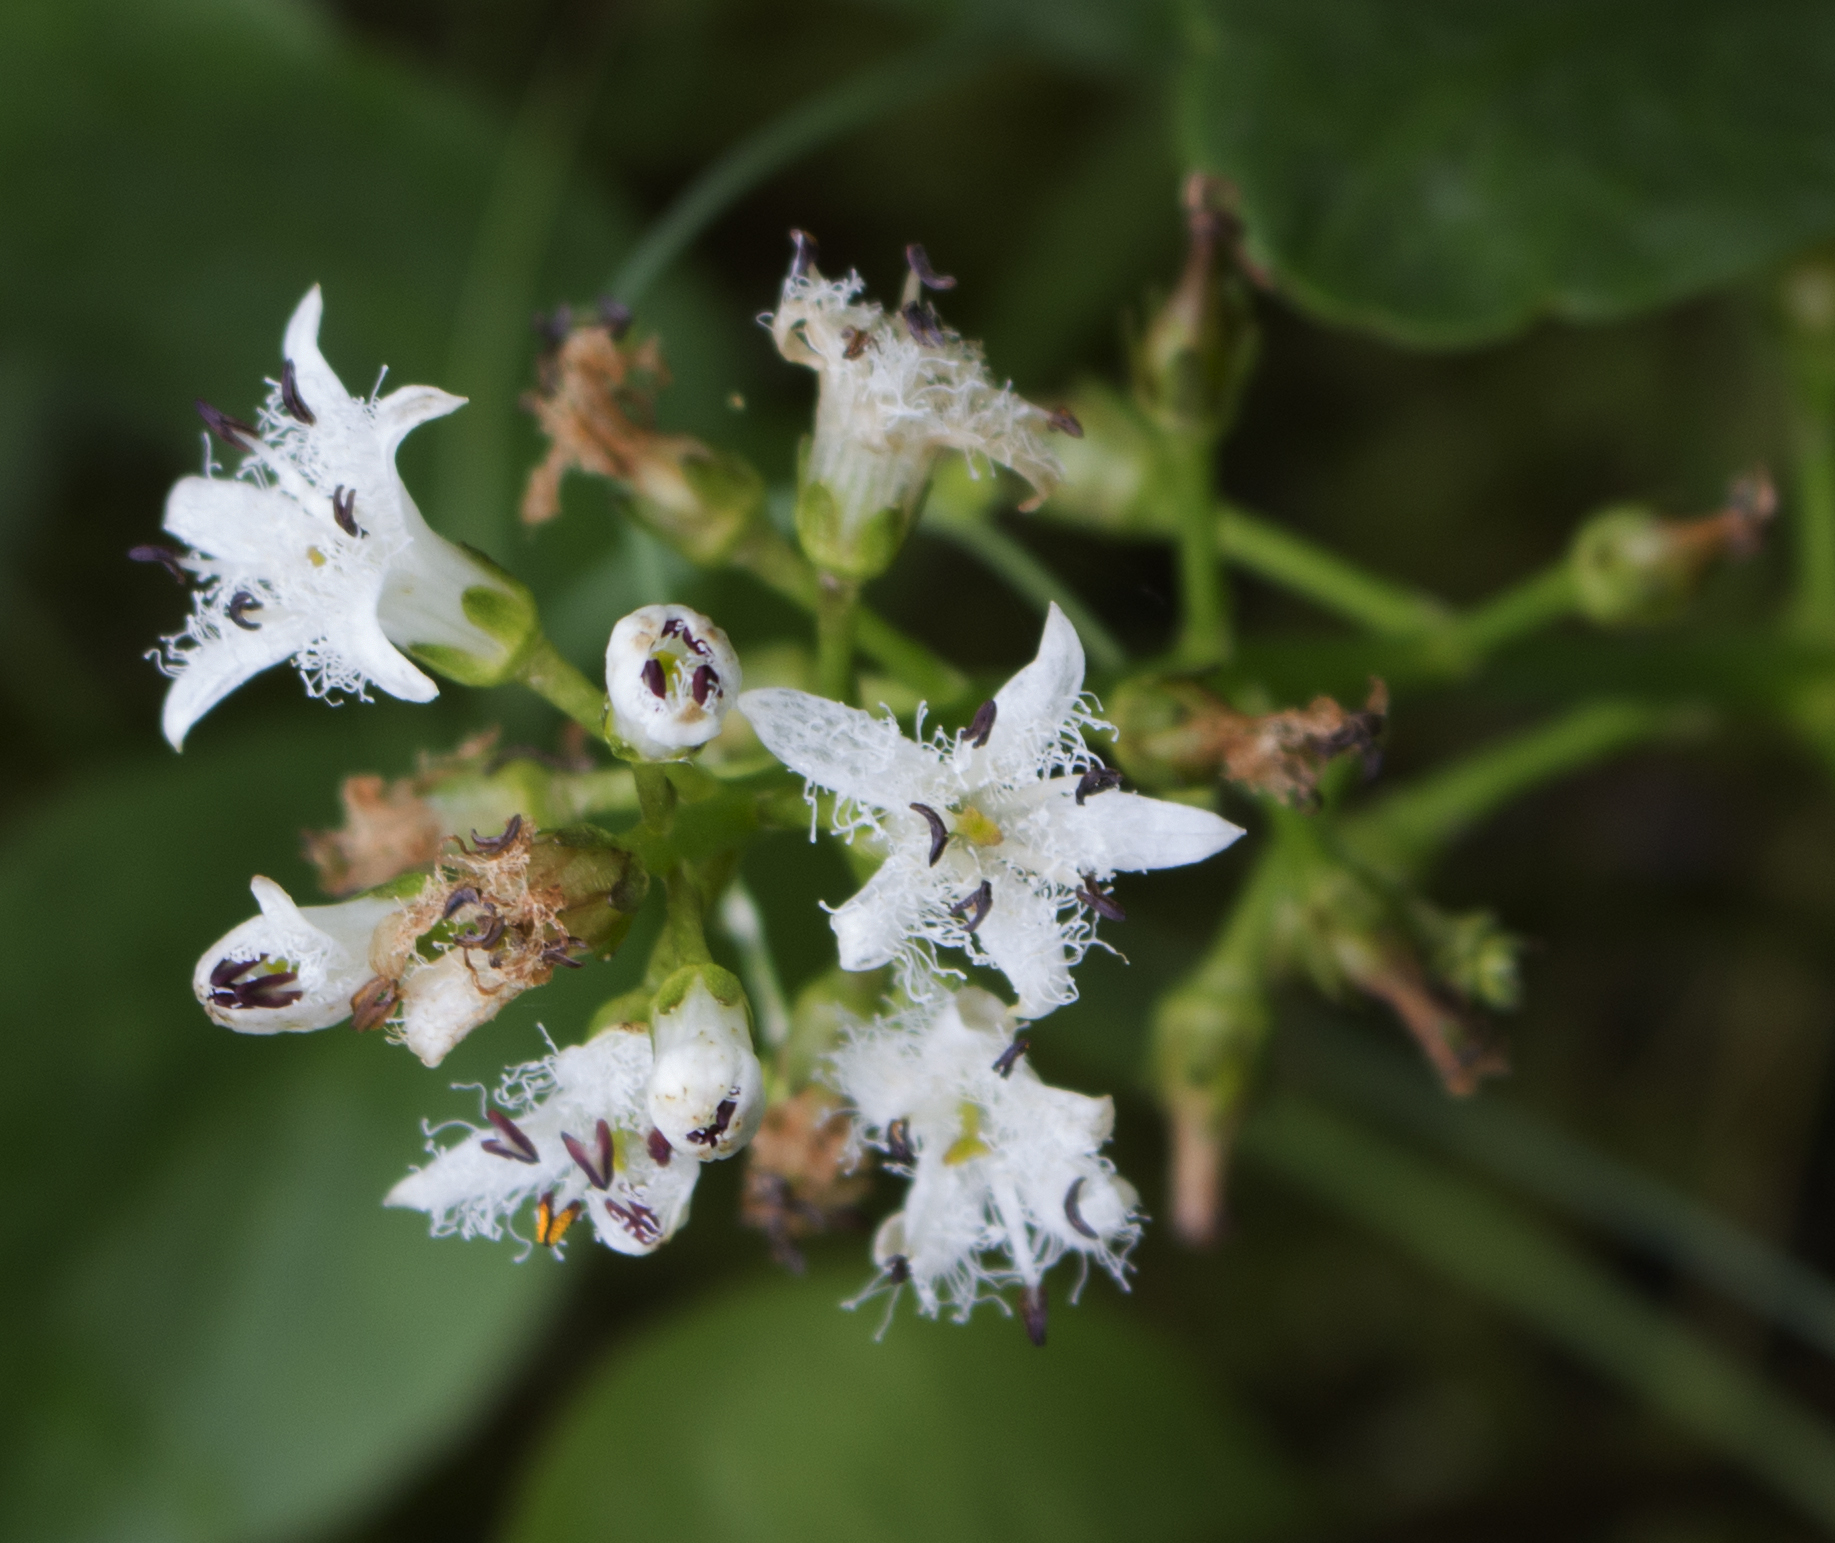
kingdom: Plantae
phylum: Tracheophyta
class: Magnoliopsida
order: Asterales
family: Menyanthaceae
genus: Menyanthes
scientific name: Menyanthes trifoliata
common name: Bogbean
